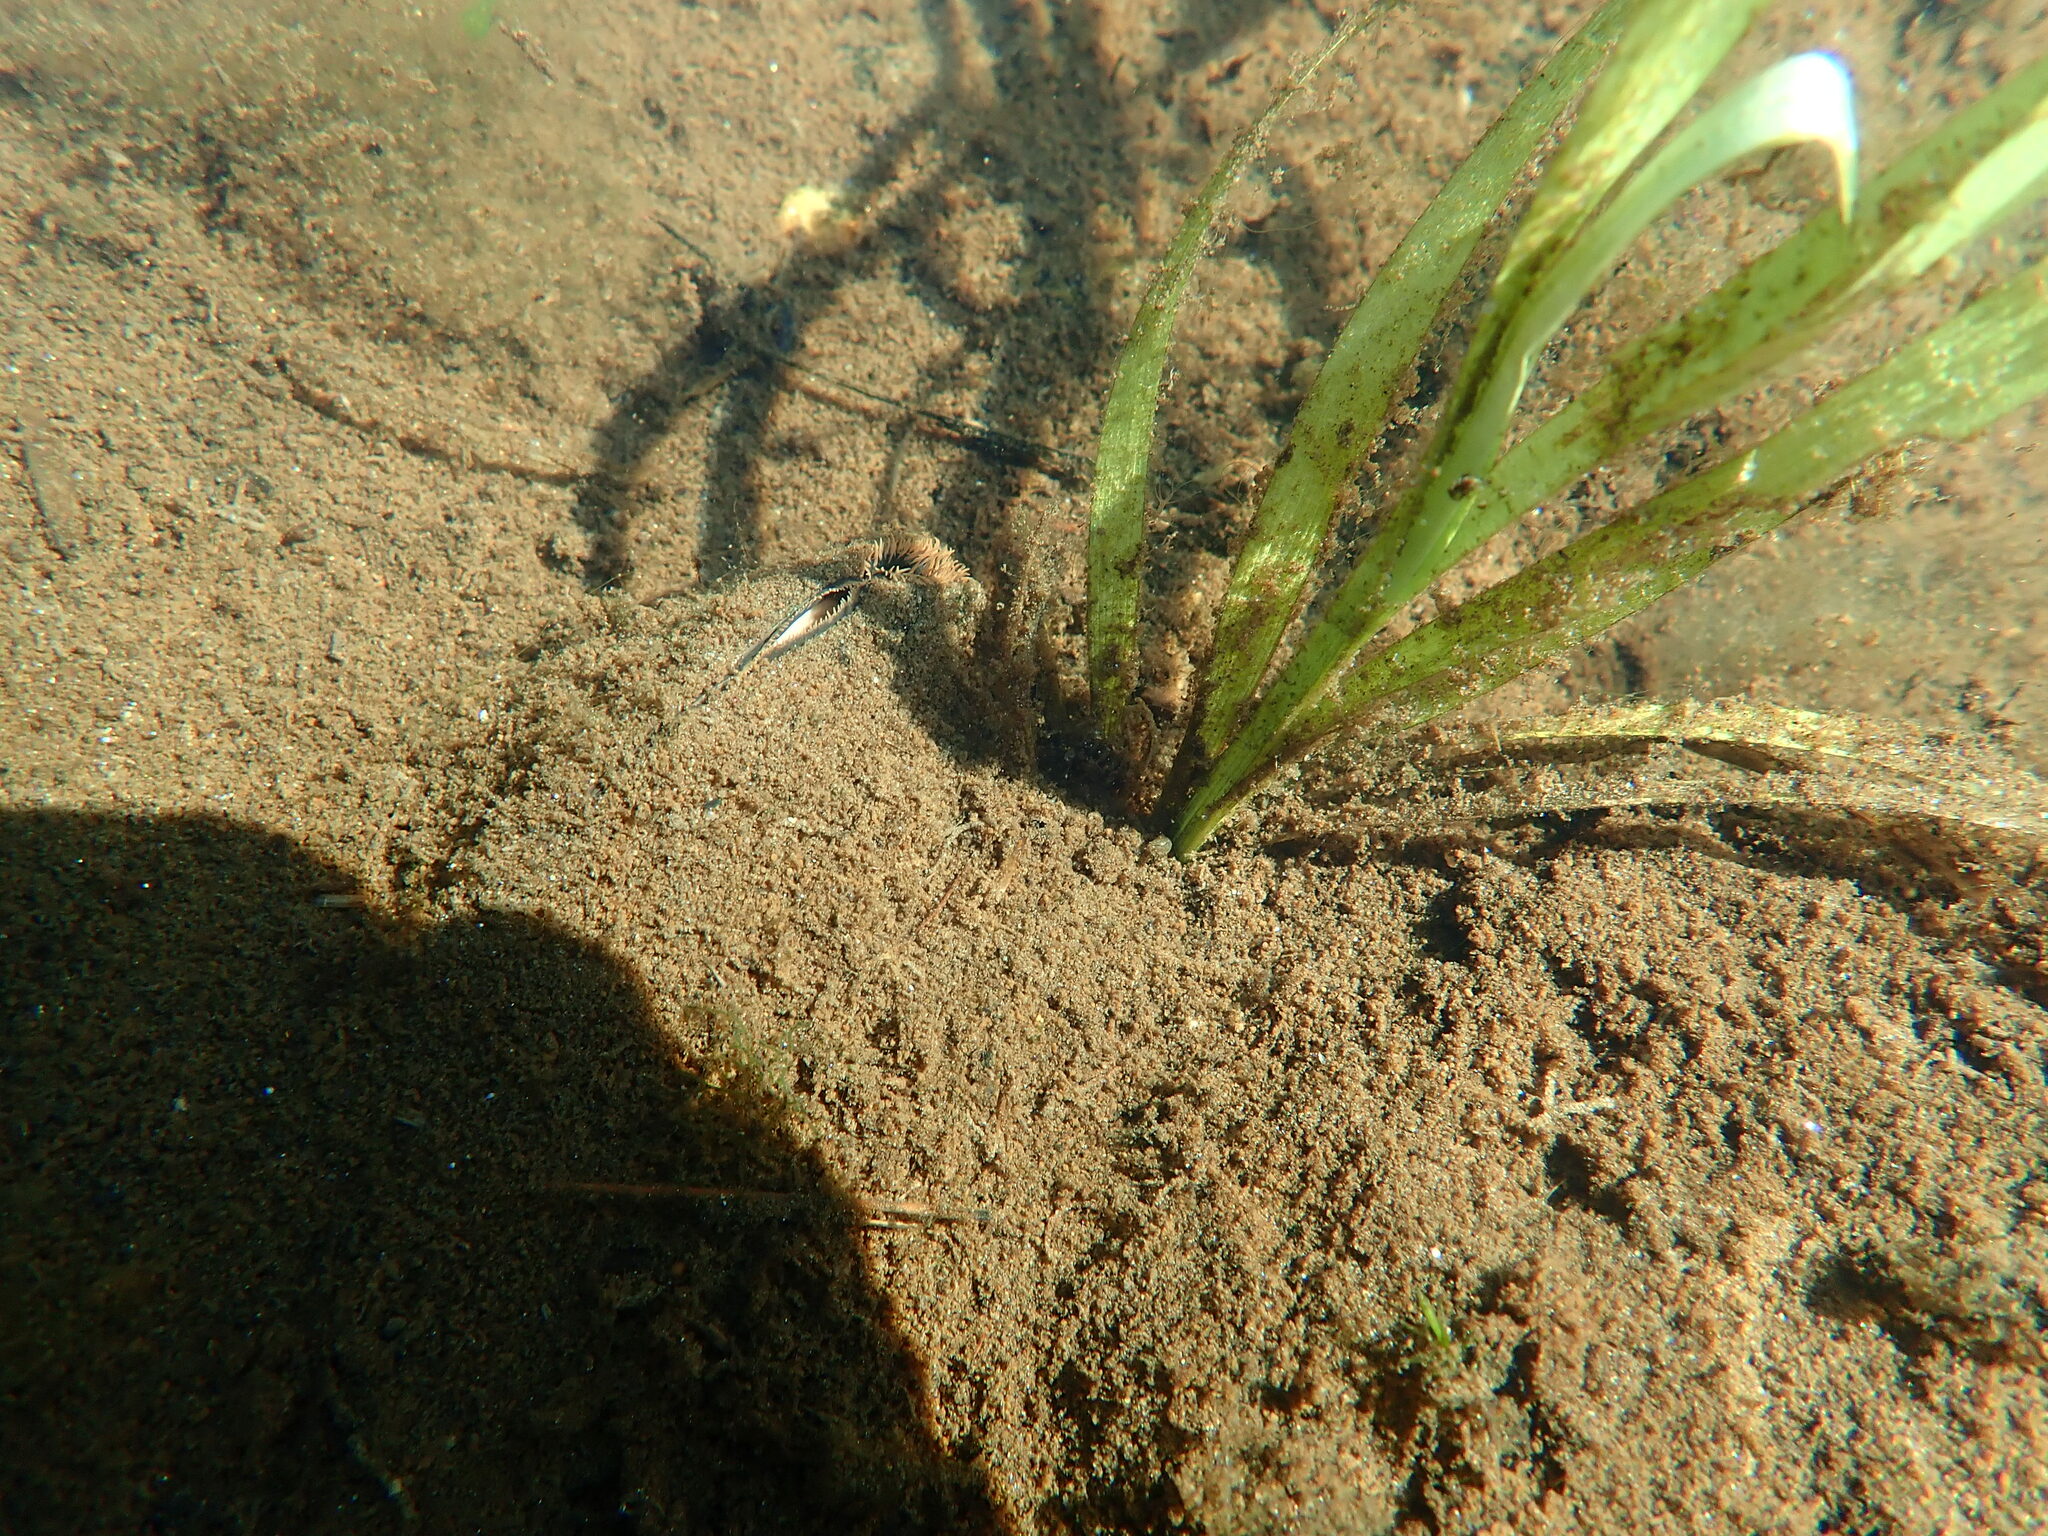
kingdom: Animalia
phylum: Mollusca
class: Bivalvia
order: Unionida
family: Unionidae
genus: Elliptio
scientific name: Elliptio complanata
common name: Eastern elliptio
